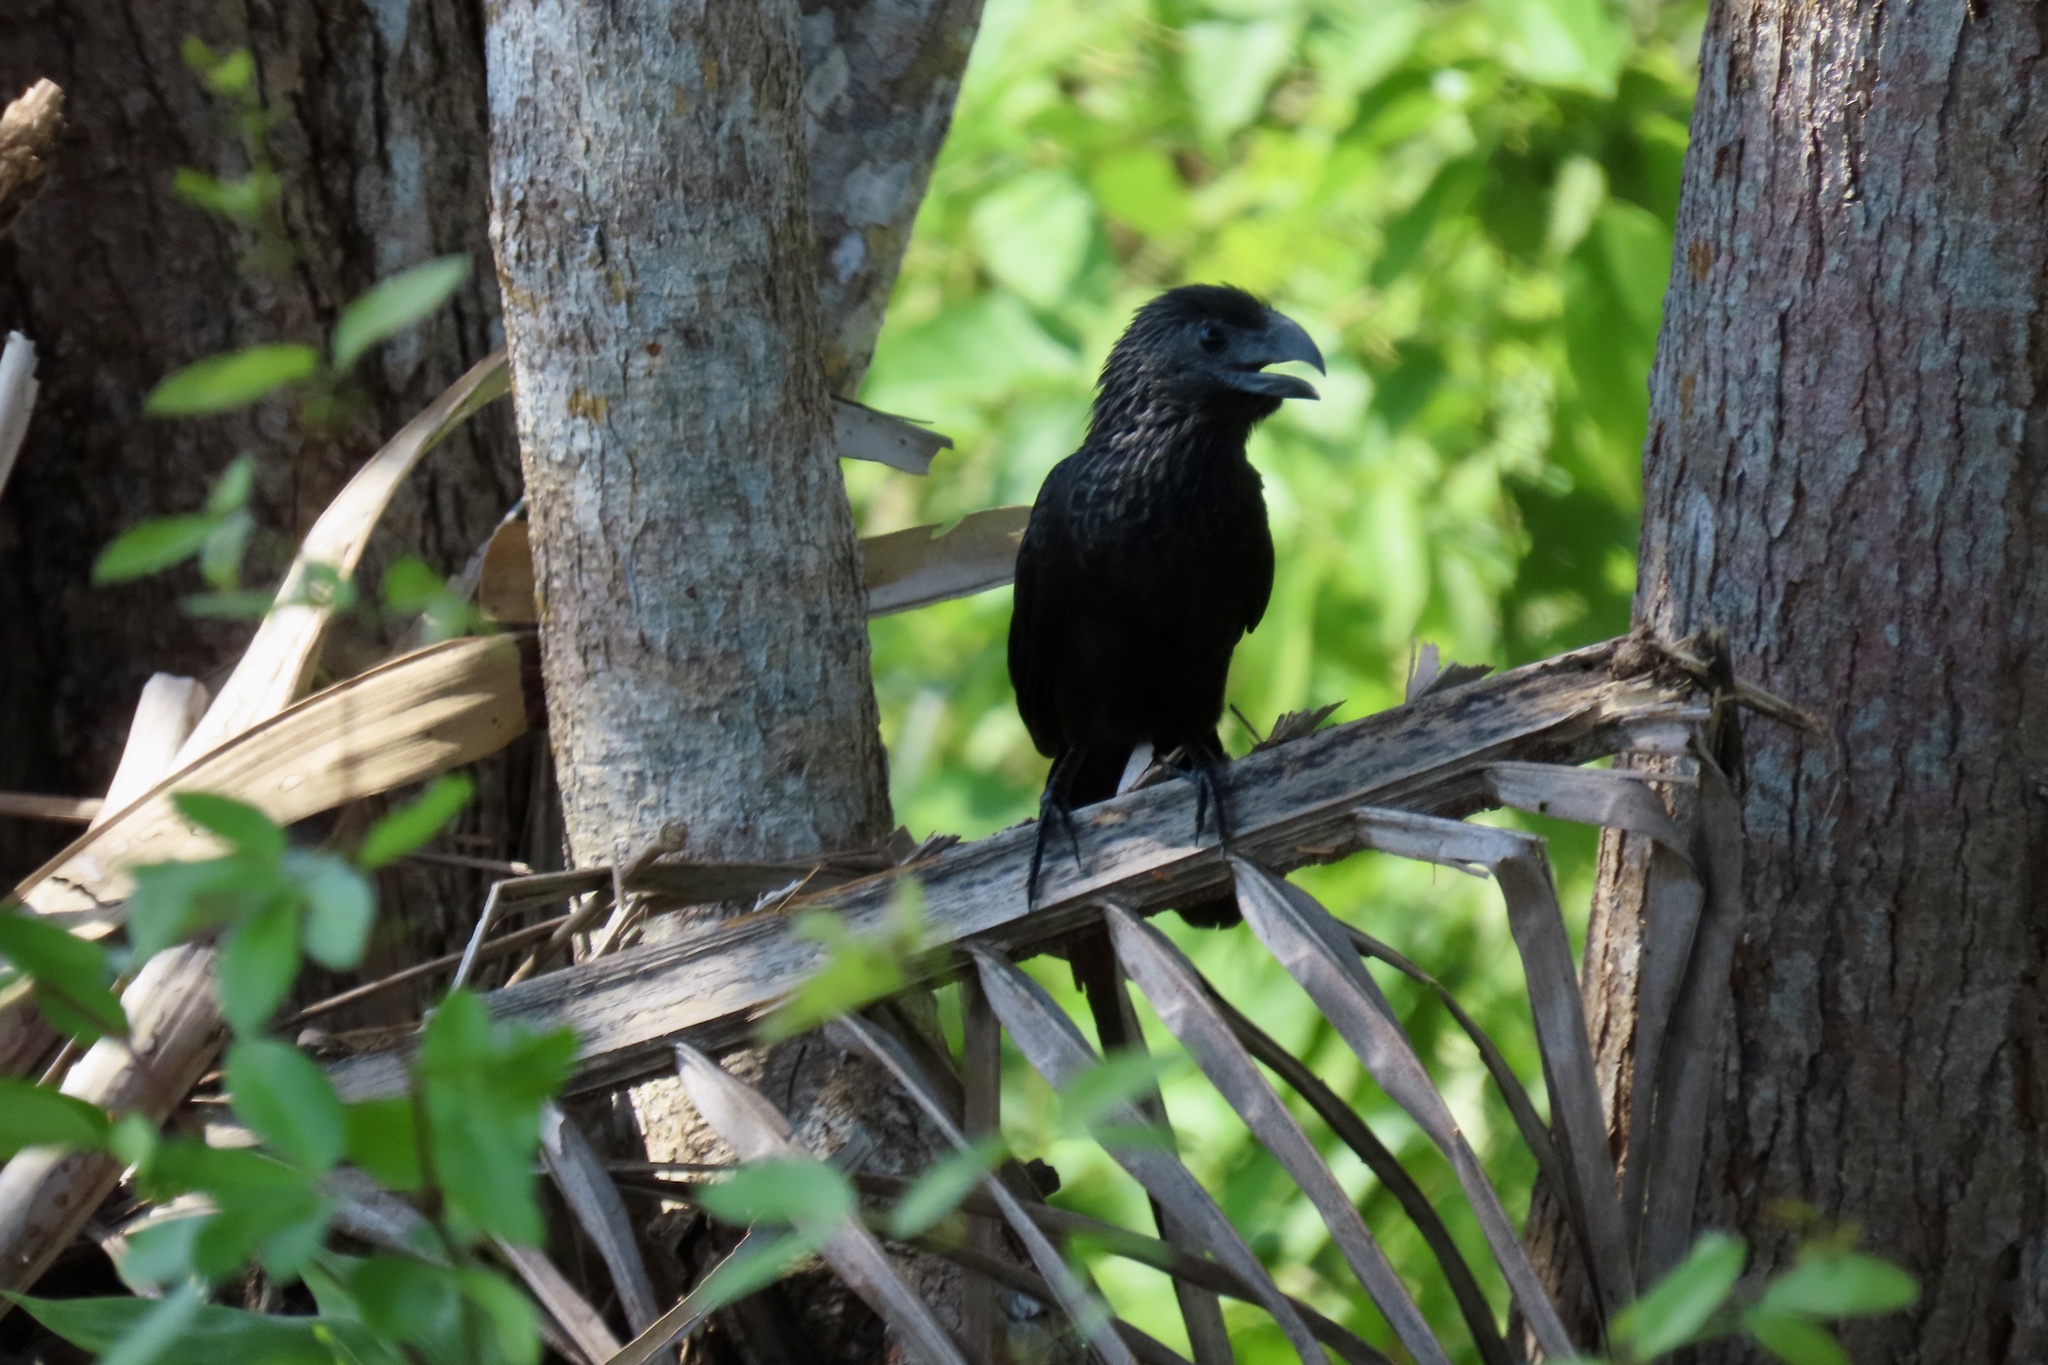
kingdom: Animalia
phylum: Chordata
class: Aves
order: Cuculiformes
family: Cuculidae
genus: Crotophaga
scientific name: Crotophaga sulcirostris
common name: Groove-billed ani
